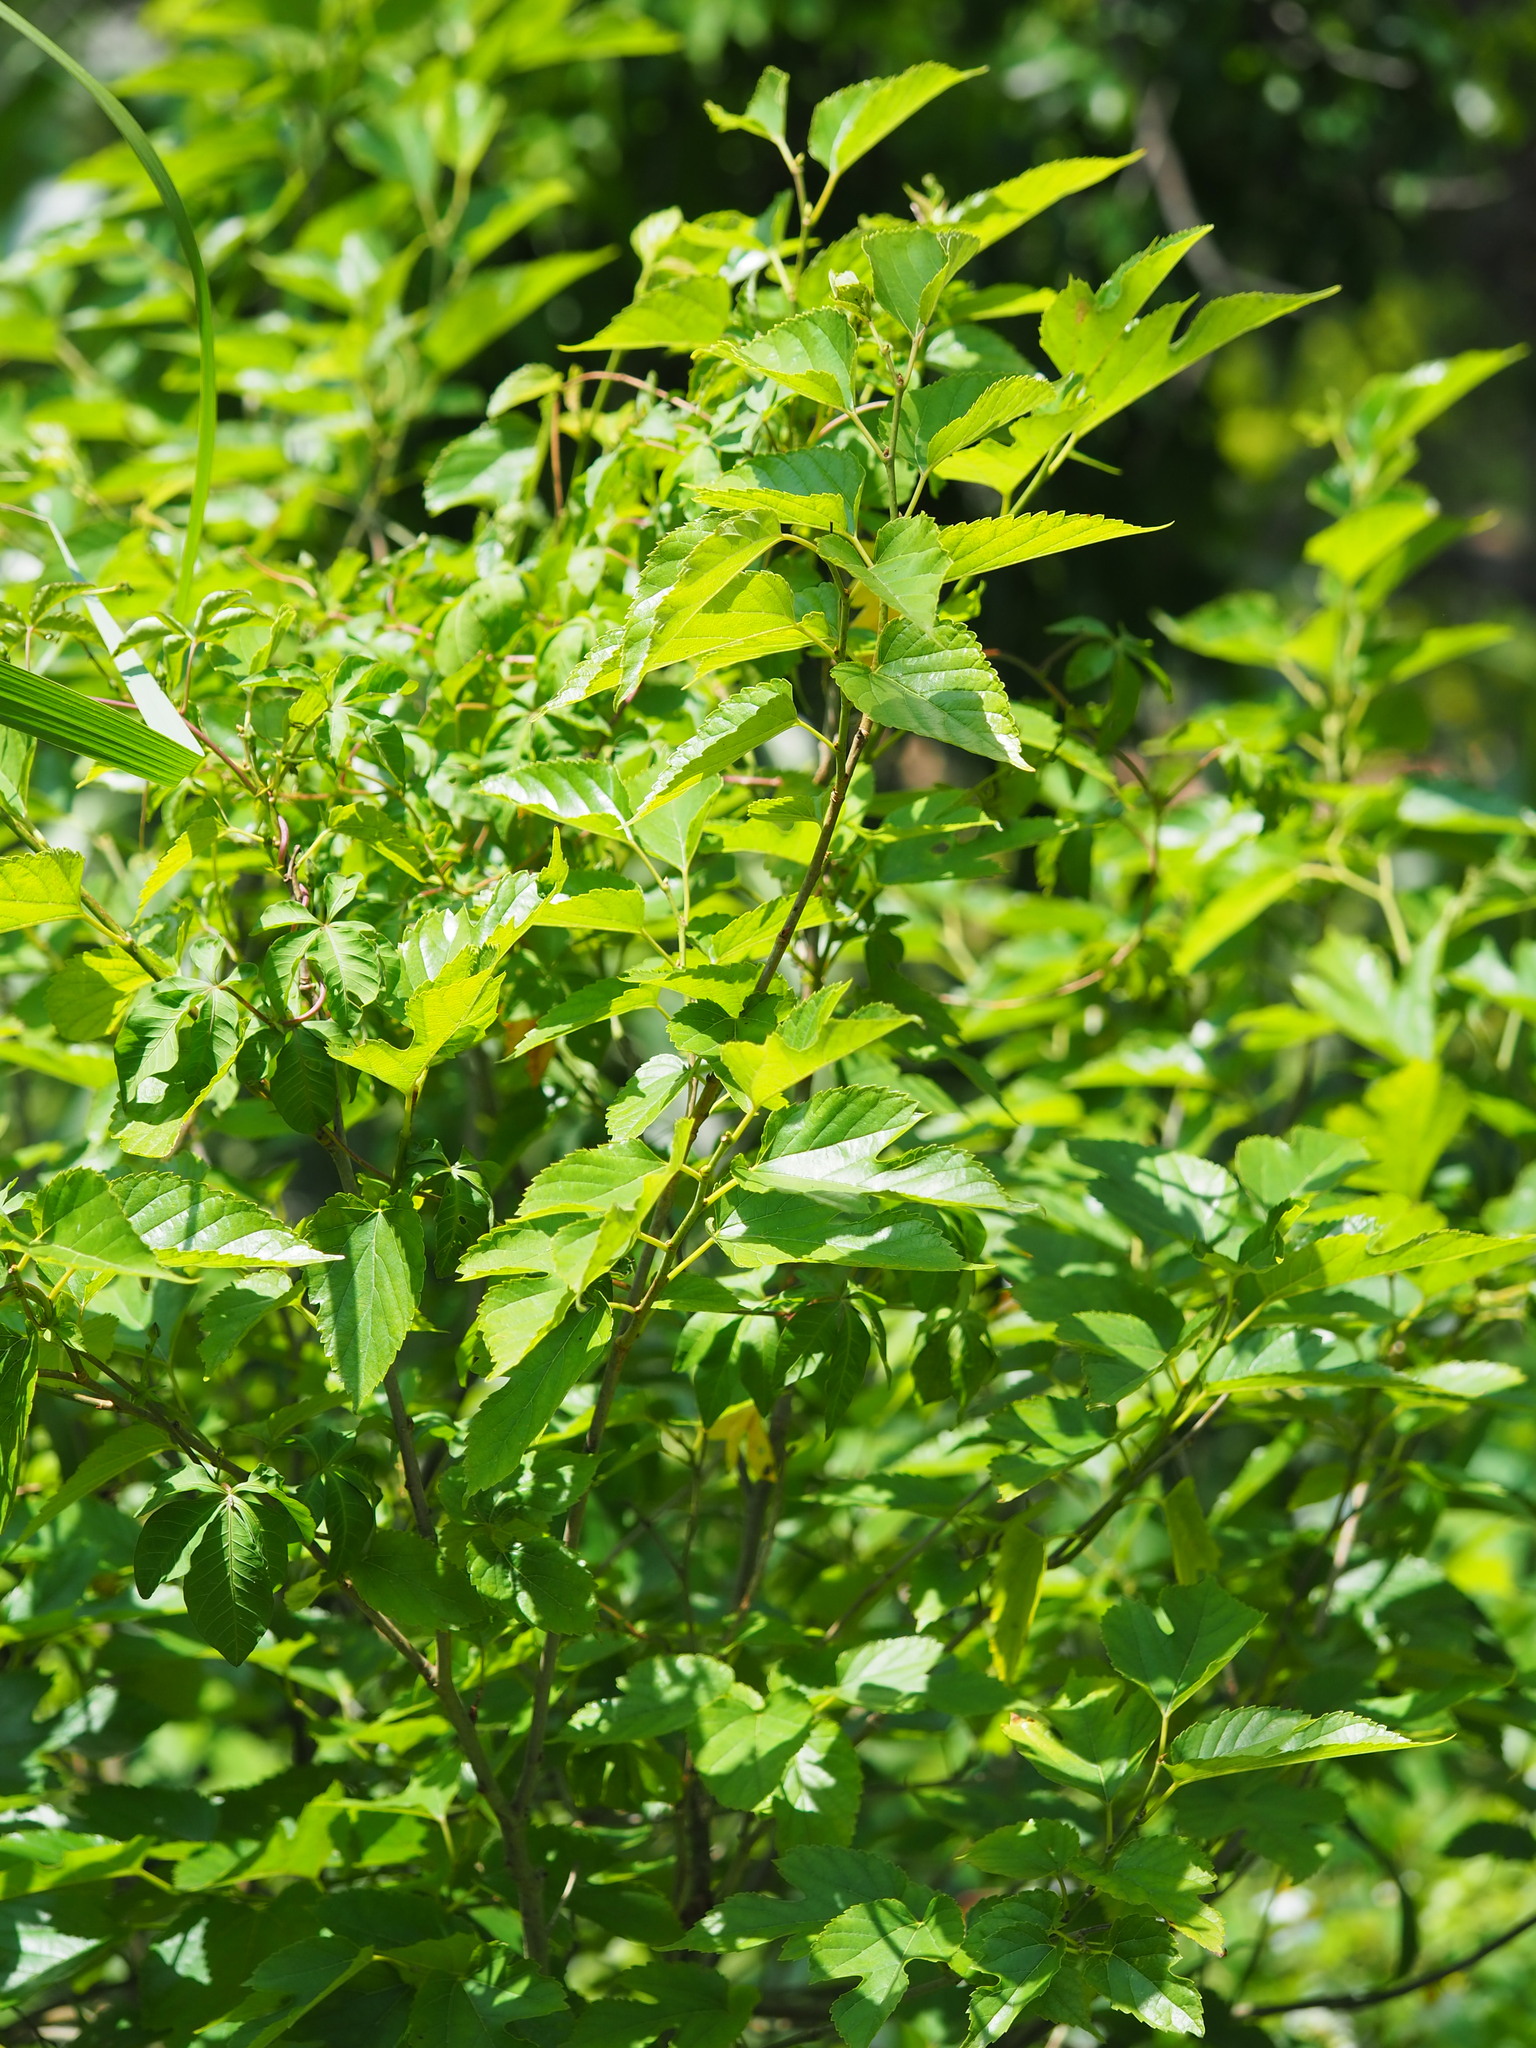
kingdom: Plantae
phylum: Tracheophyta
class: Magnoliopsida
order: Rosales
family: Moraceae
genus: Morus
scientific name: Morus indica
